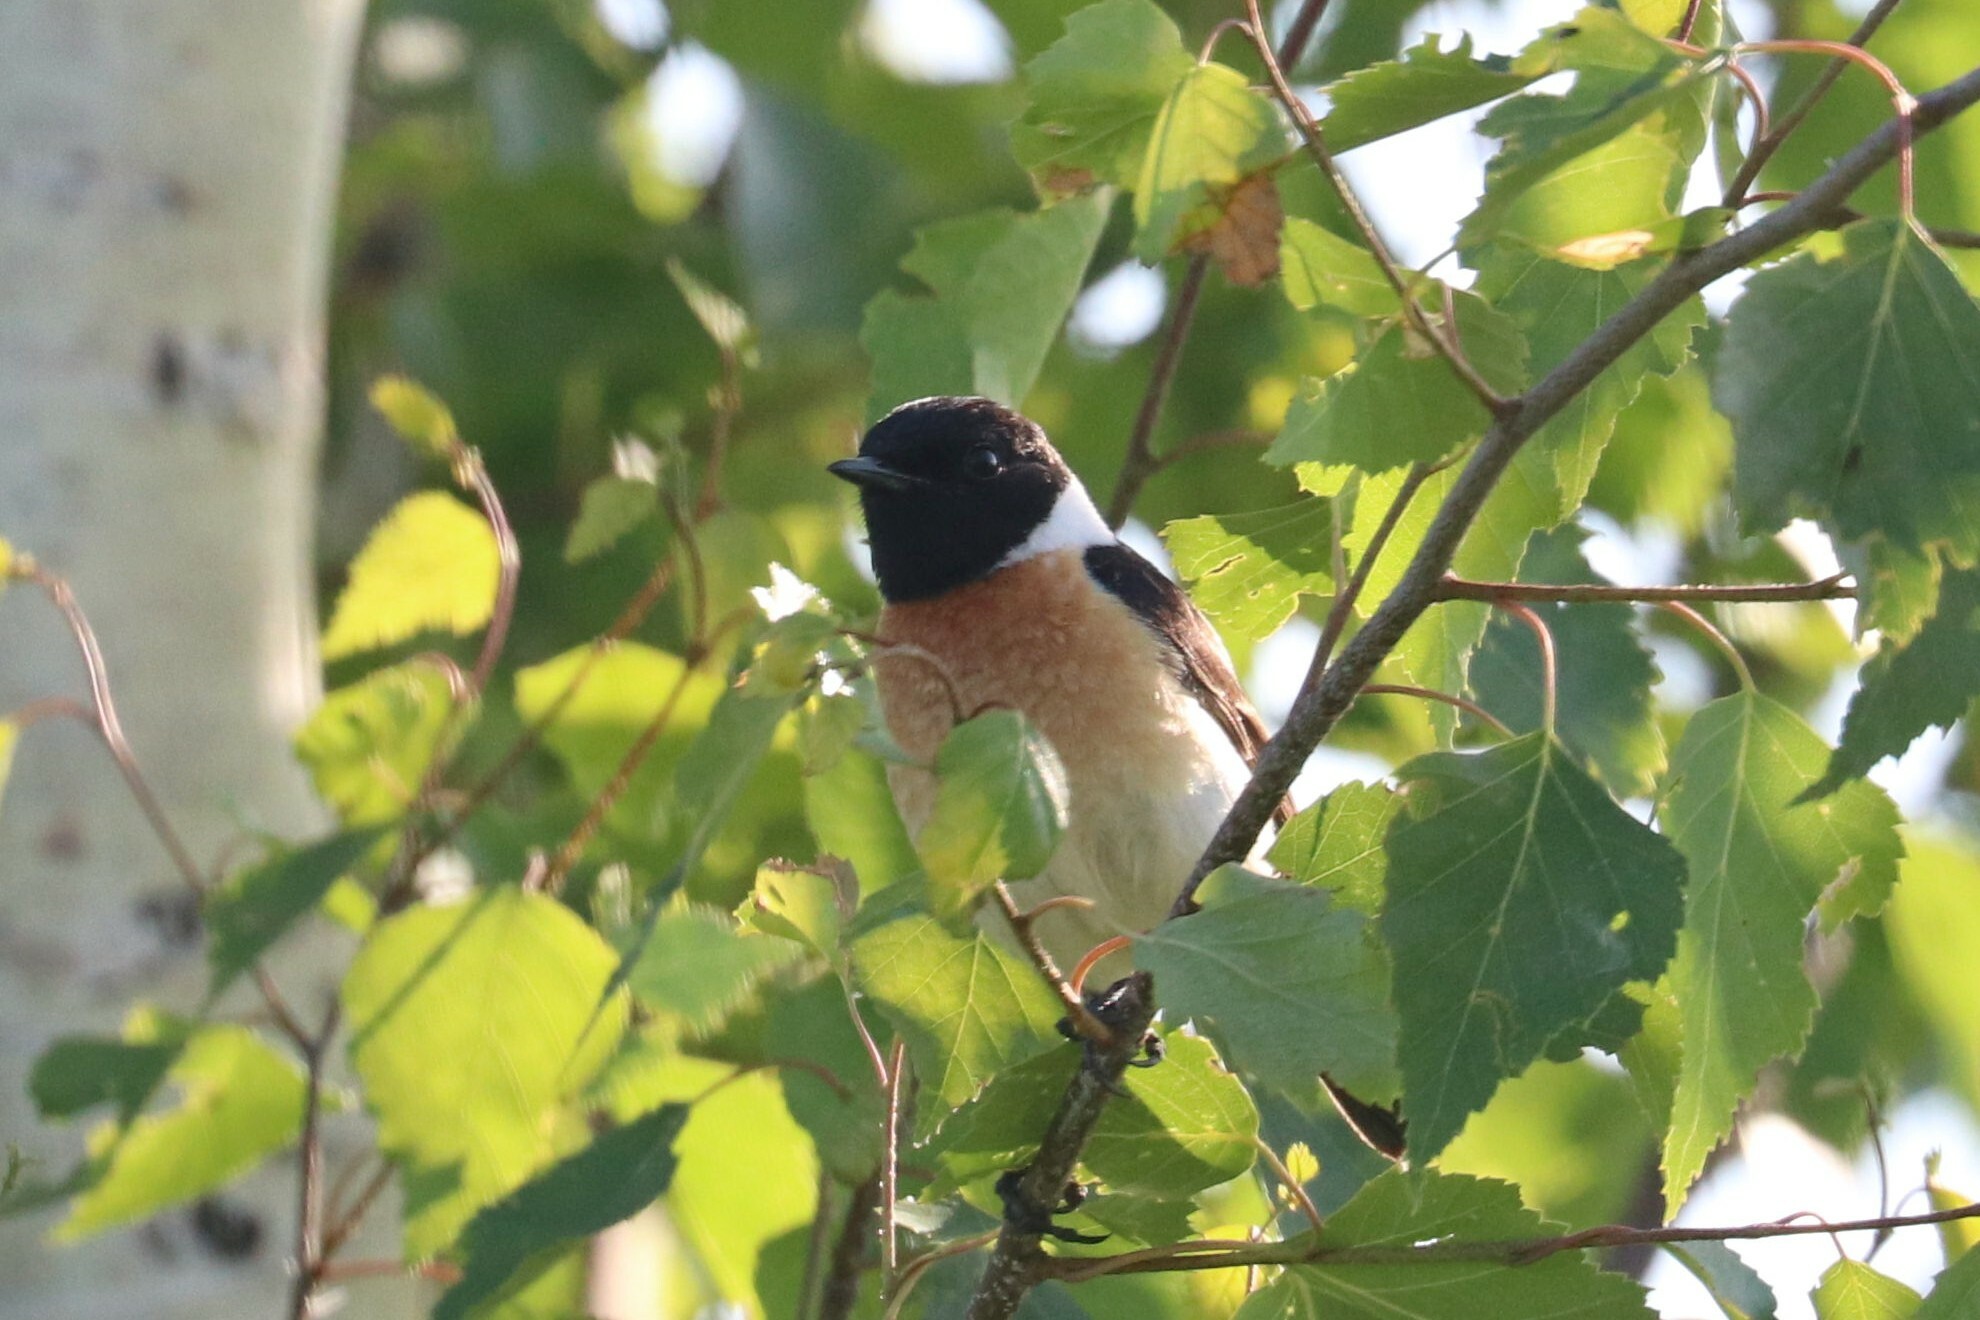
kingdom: Animalia
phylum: Chordata
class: Aves
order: Passeriformes
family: Muscicapidae
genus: Saxicola
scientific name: Saxicola maurus
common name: Siberian stonechat
